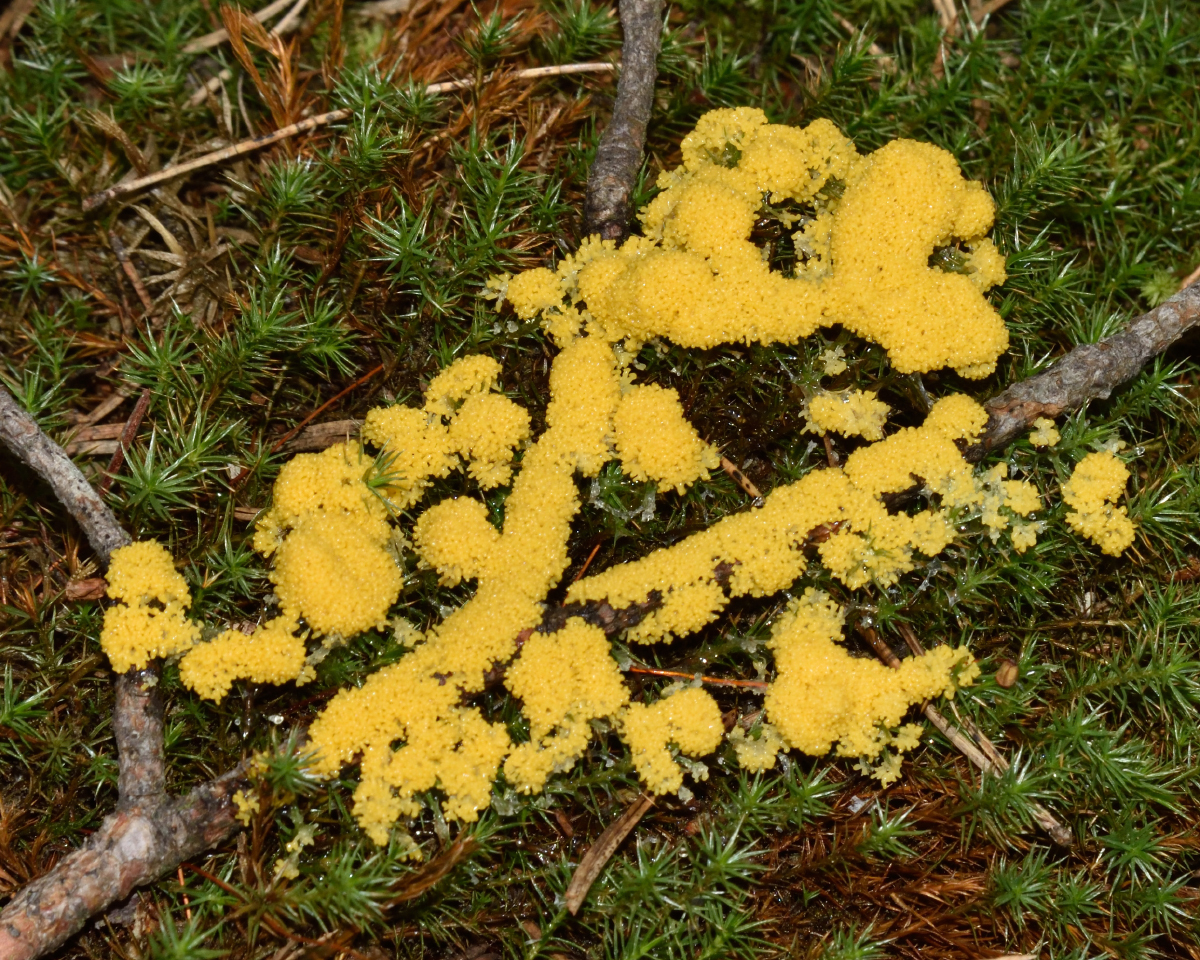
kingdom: Protozoa
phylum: Mycetozoa
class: Myxomycetes
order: Physarales
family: Physaraceae
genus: Fuligo
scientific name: Fuligo septica
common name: Dog vomit slime mold
